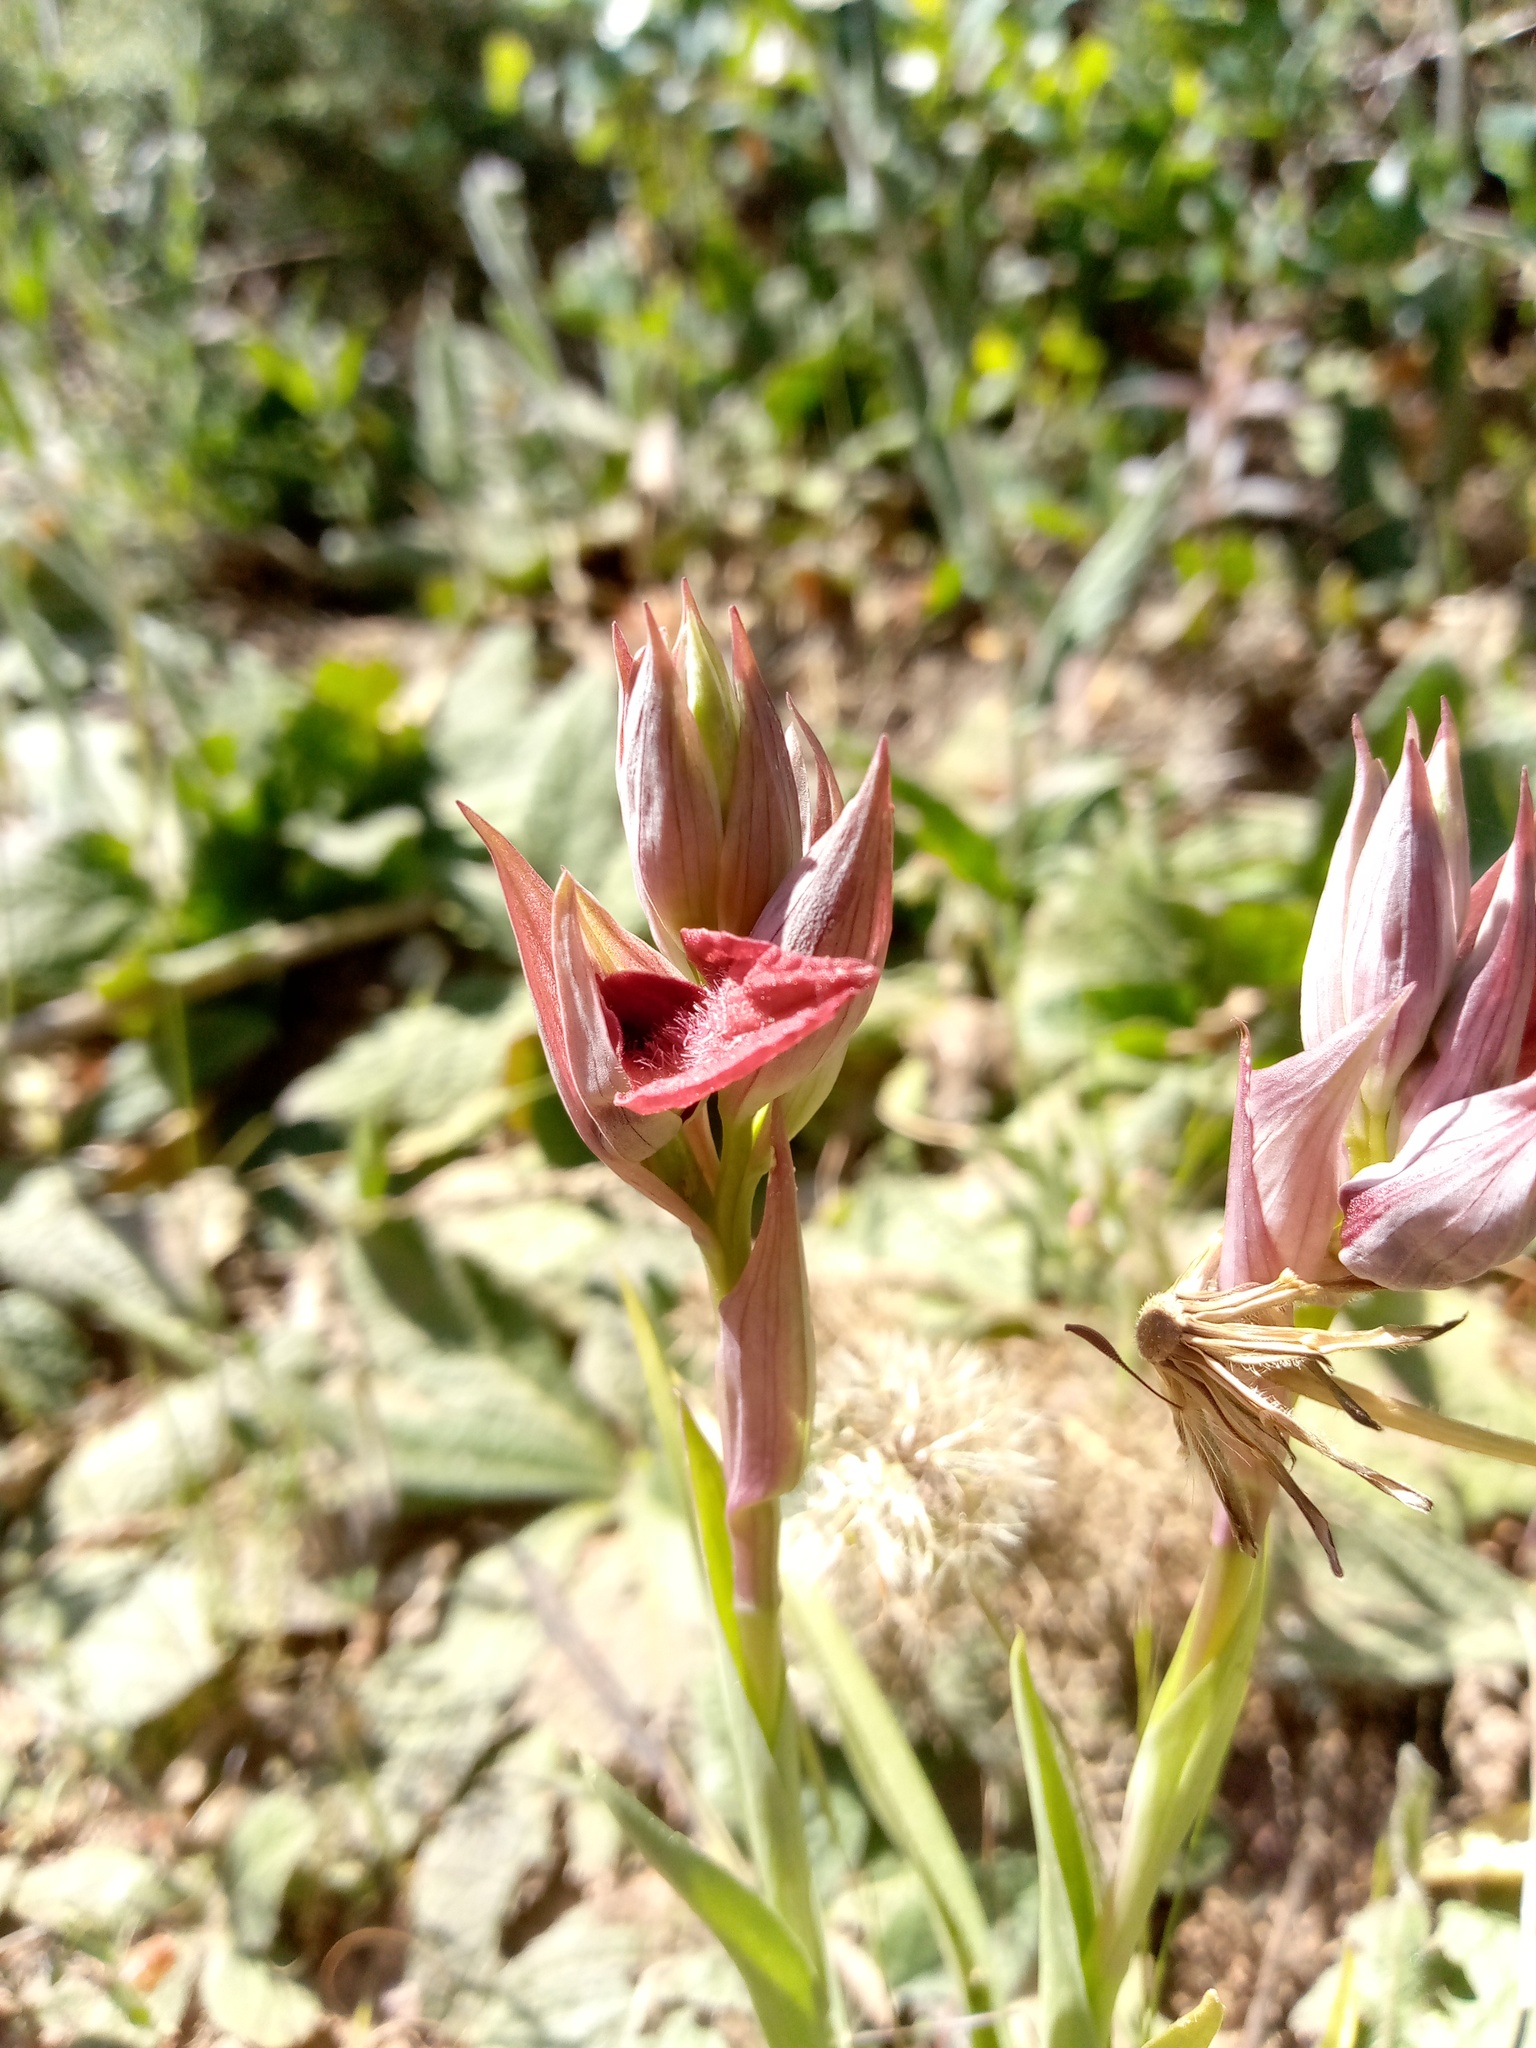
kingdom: Plantae
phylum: Tracheophyta
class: Liliopsida
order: Asparagales
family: Orchidaceae
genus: Serapias
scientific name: Serapias cordigera
